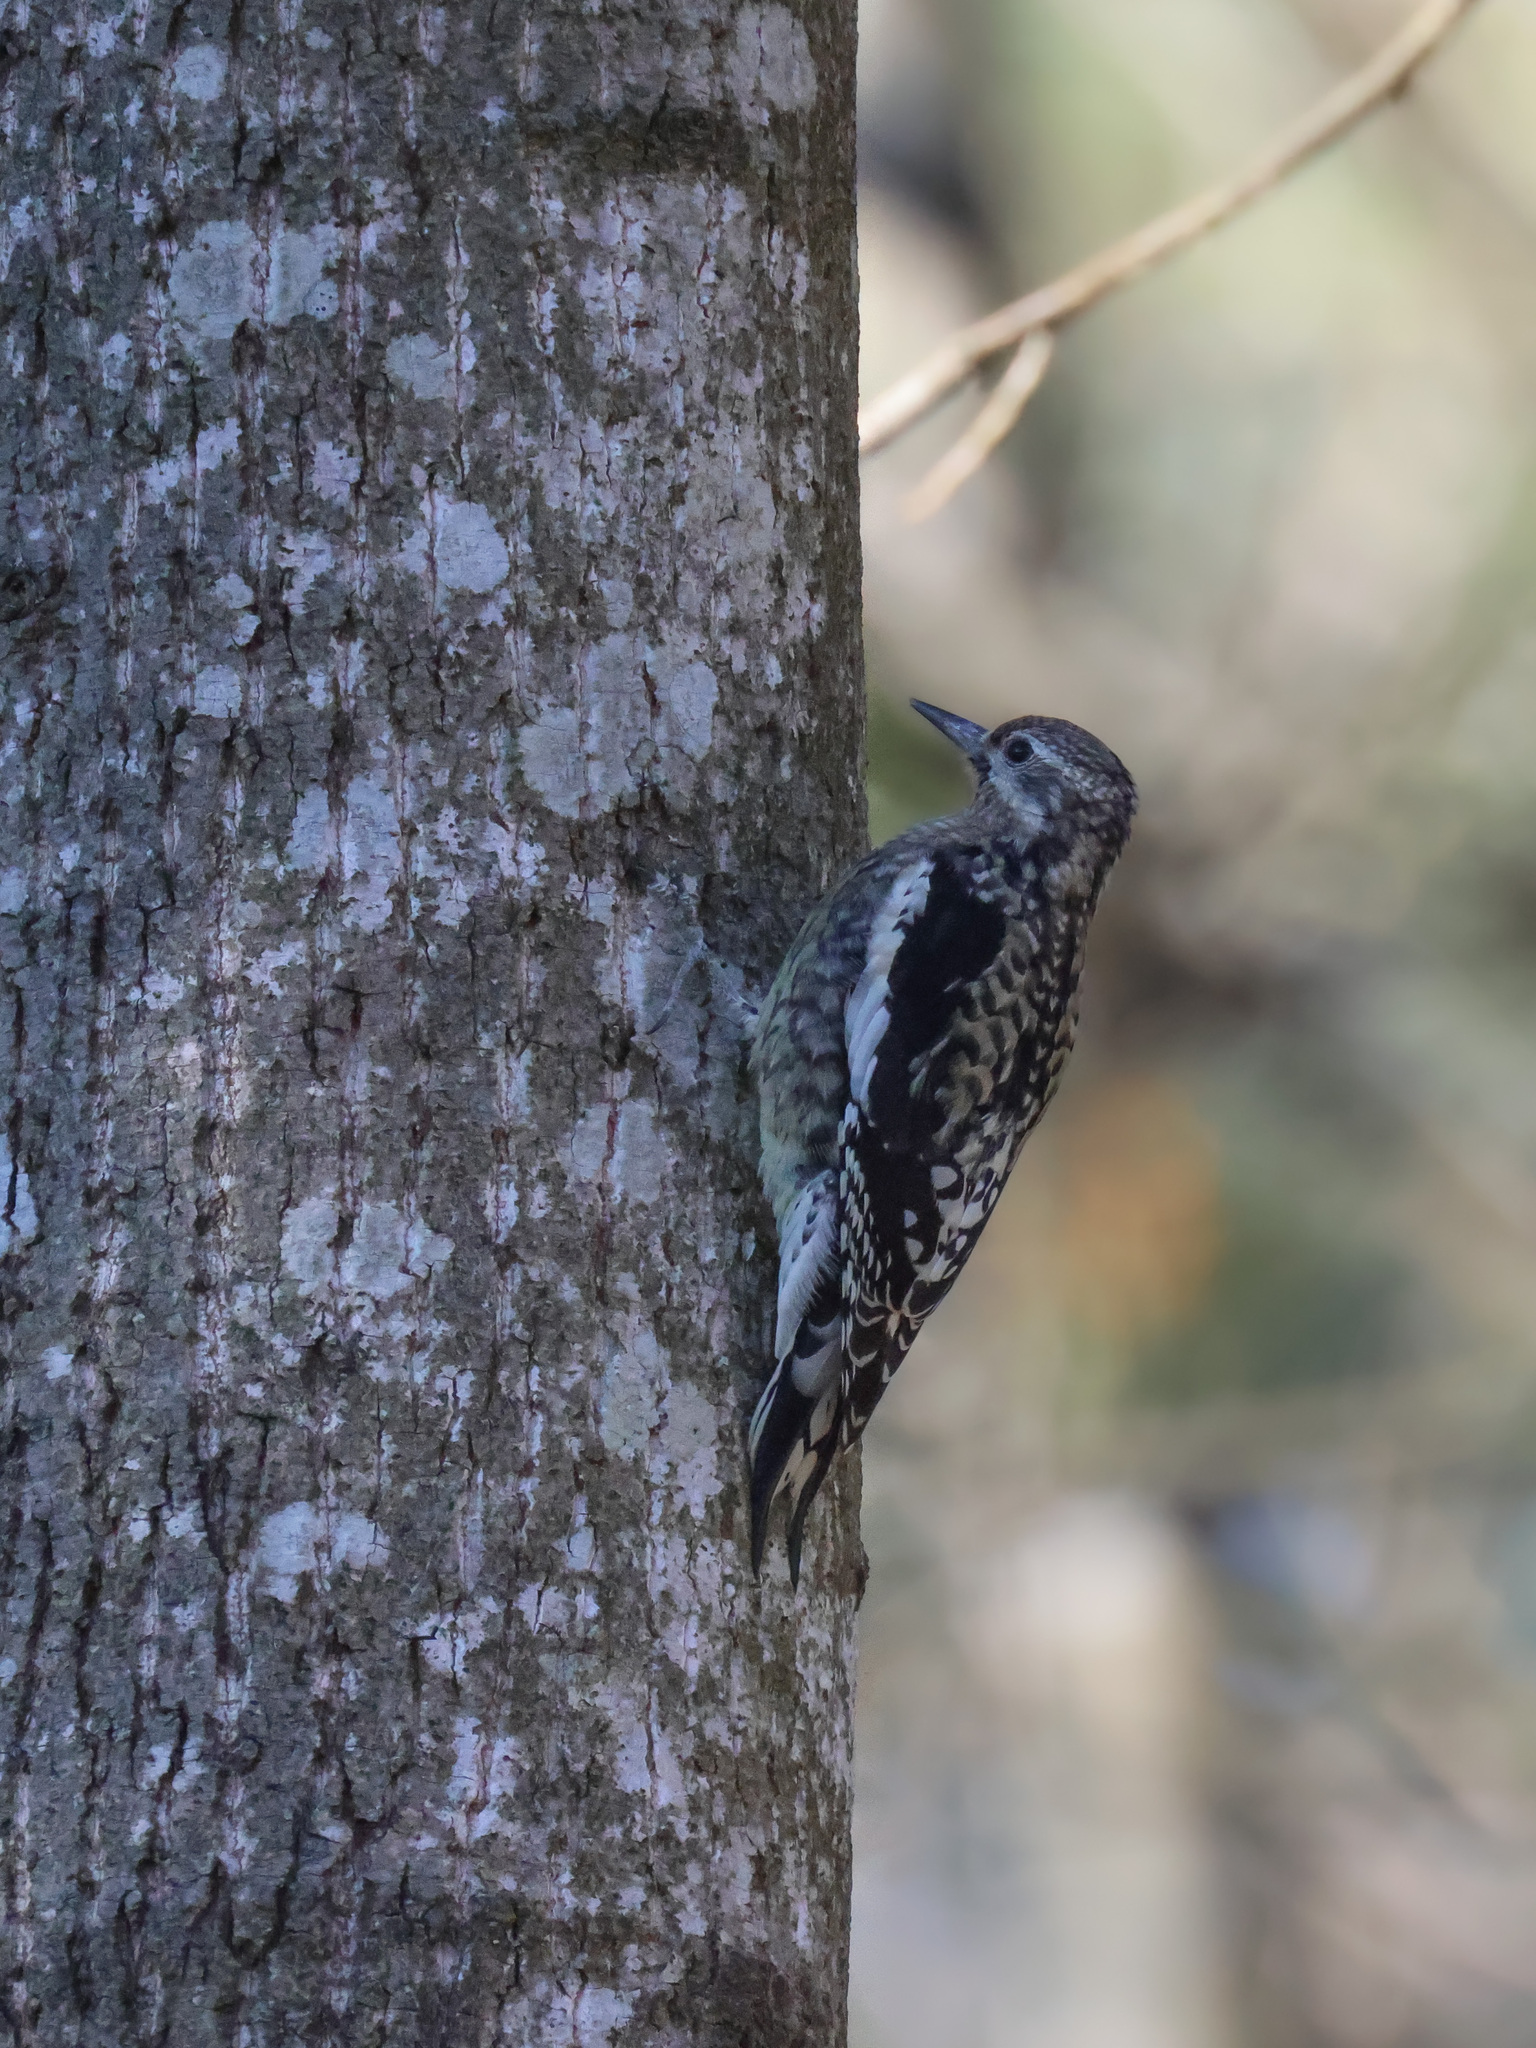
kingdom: Animalia
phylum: Chordata
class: Aves
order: Piciformes
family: Picidae
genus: Sphyrapicus
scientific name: Sphyrapicus varius
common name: Yellow-bellied sapsucker
